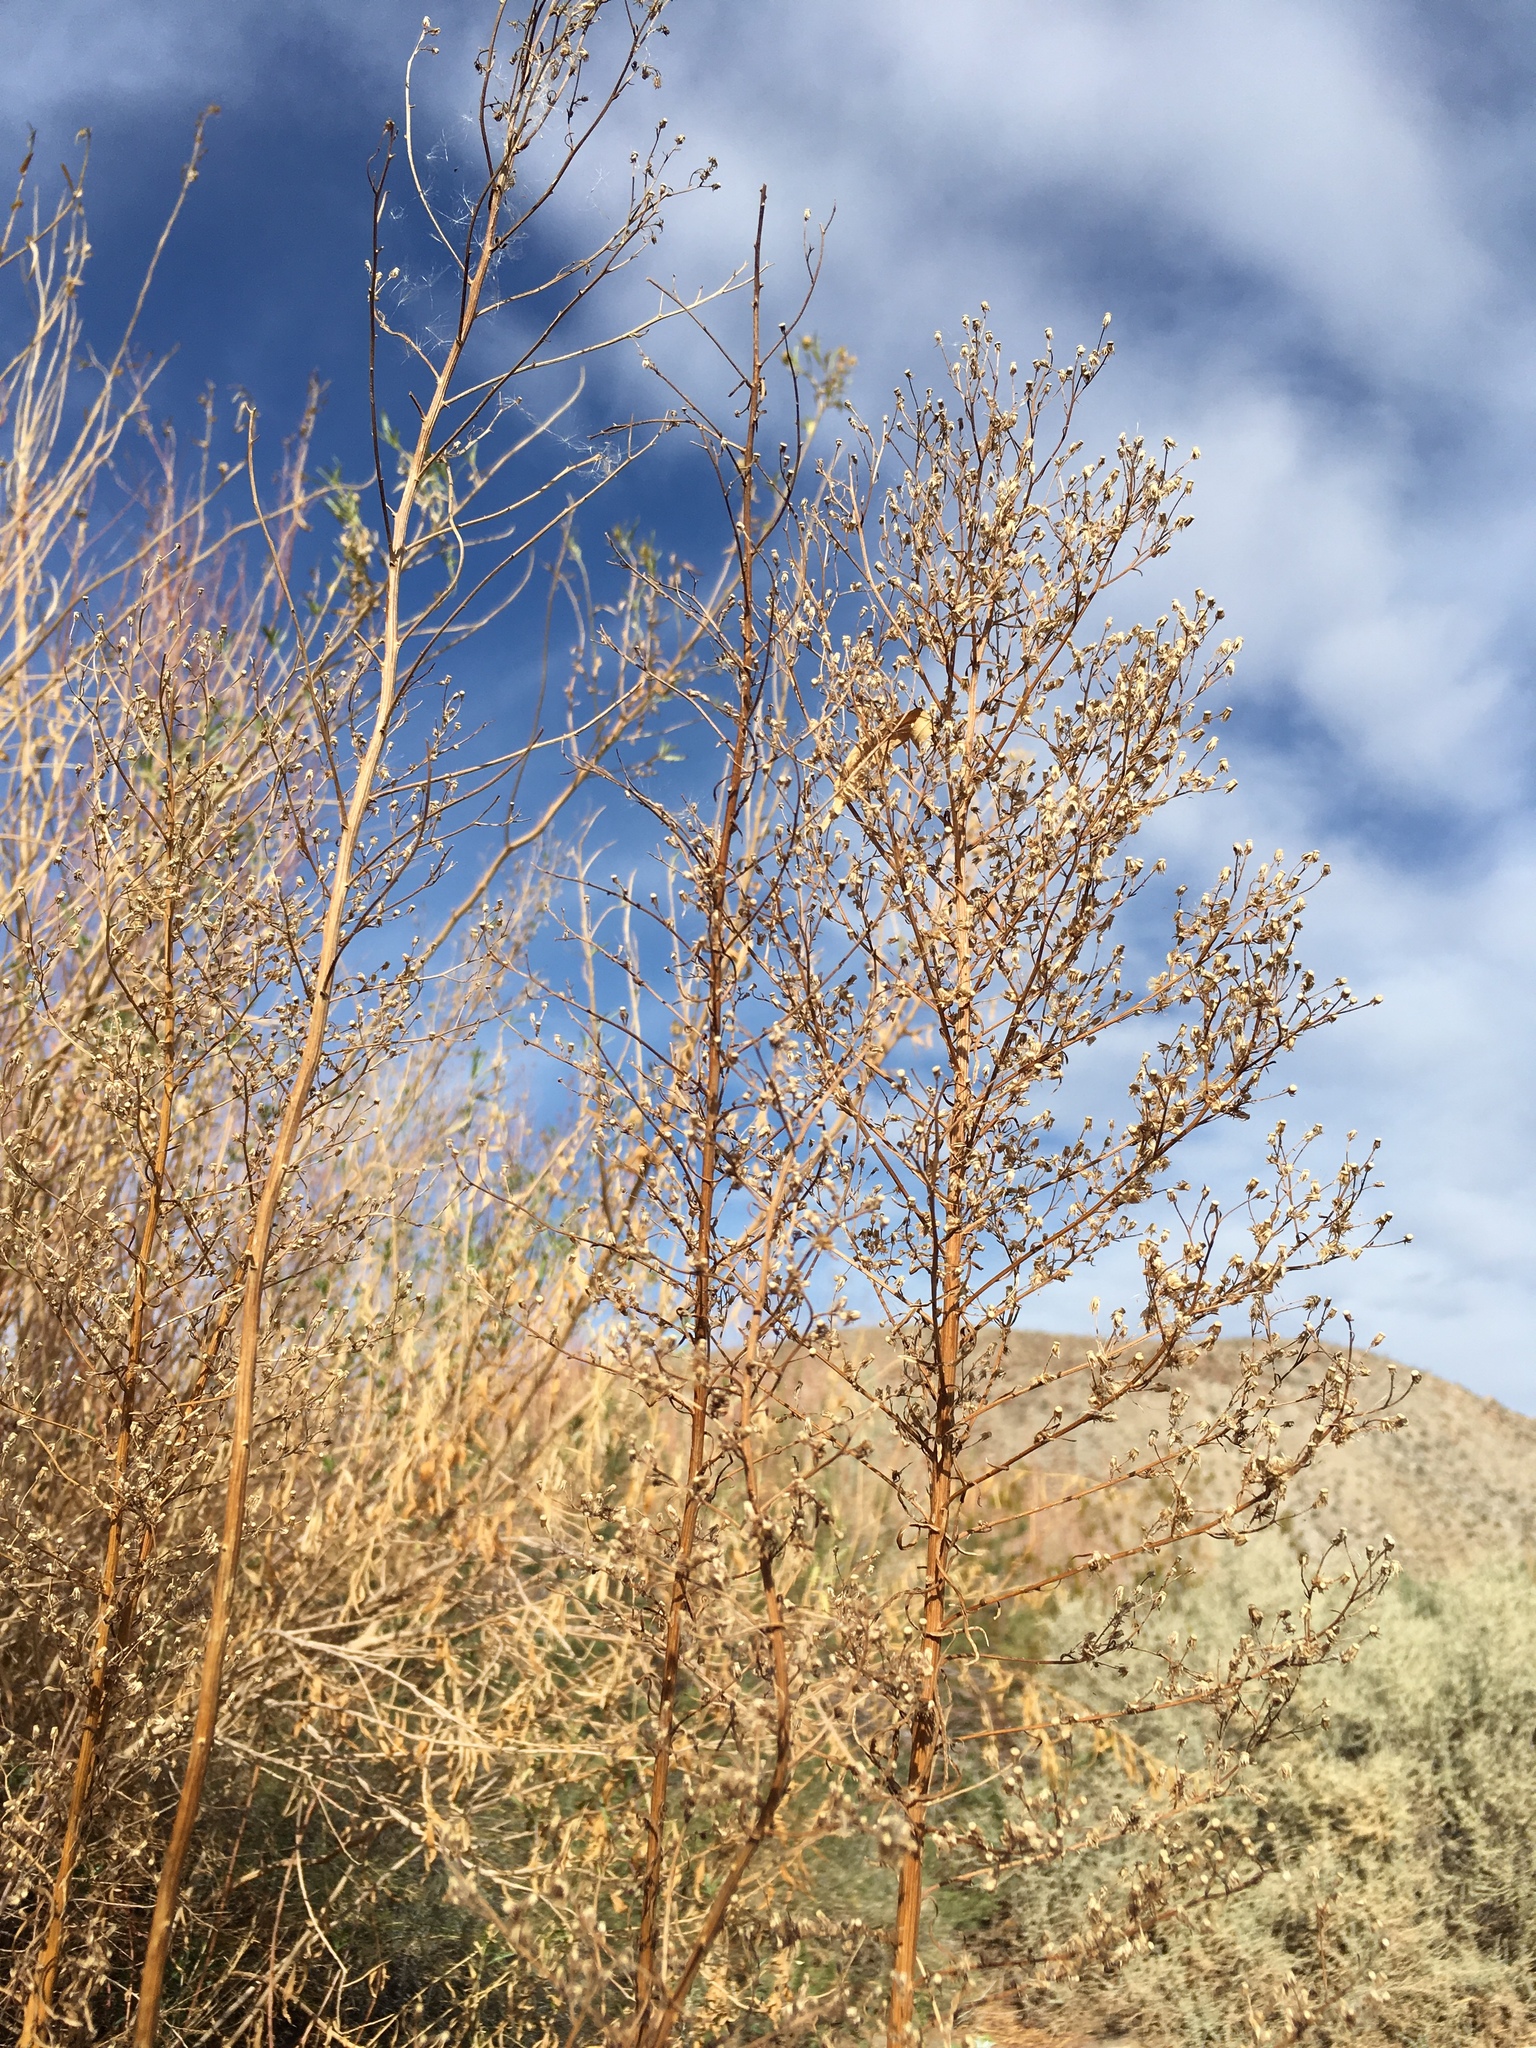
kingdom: Plantae
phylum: Tracheophyta
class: Magnoliopsida
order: Asterales
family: Asteraceae
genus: Erigeron
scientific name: Erigeron canadensis
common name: Canadian fleabane
